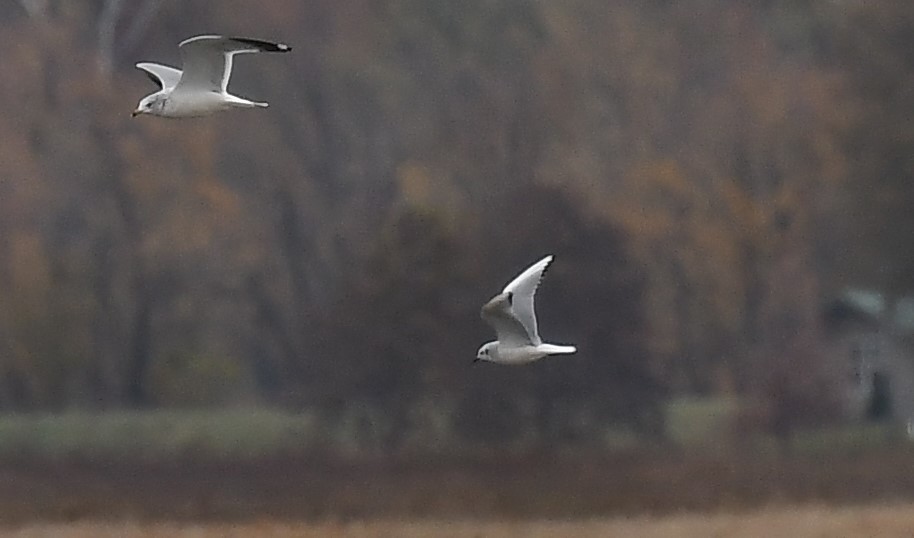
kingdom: Animalia
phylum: Chordata
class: Aves
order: Charadriiformes
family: Laridae
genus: Chroicocephalus
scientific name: Chroicocephalus philadelphia
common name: Bonaparte's gull
